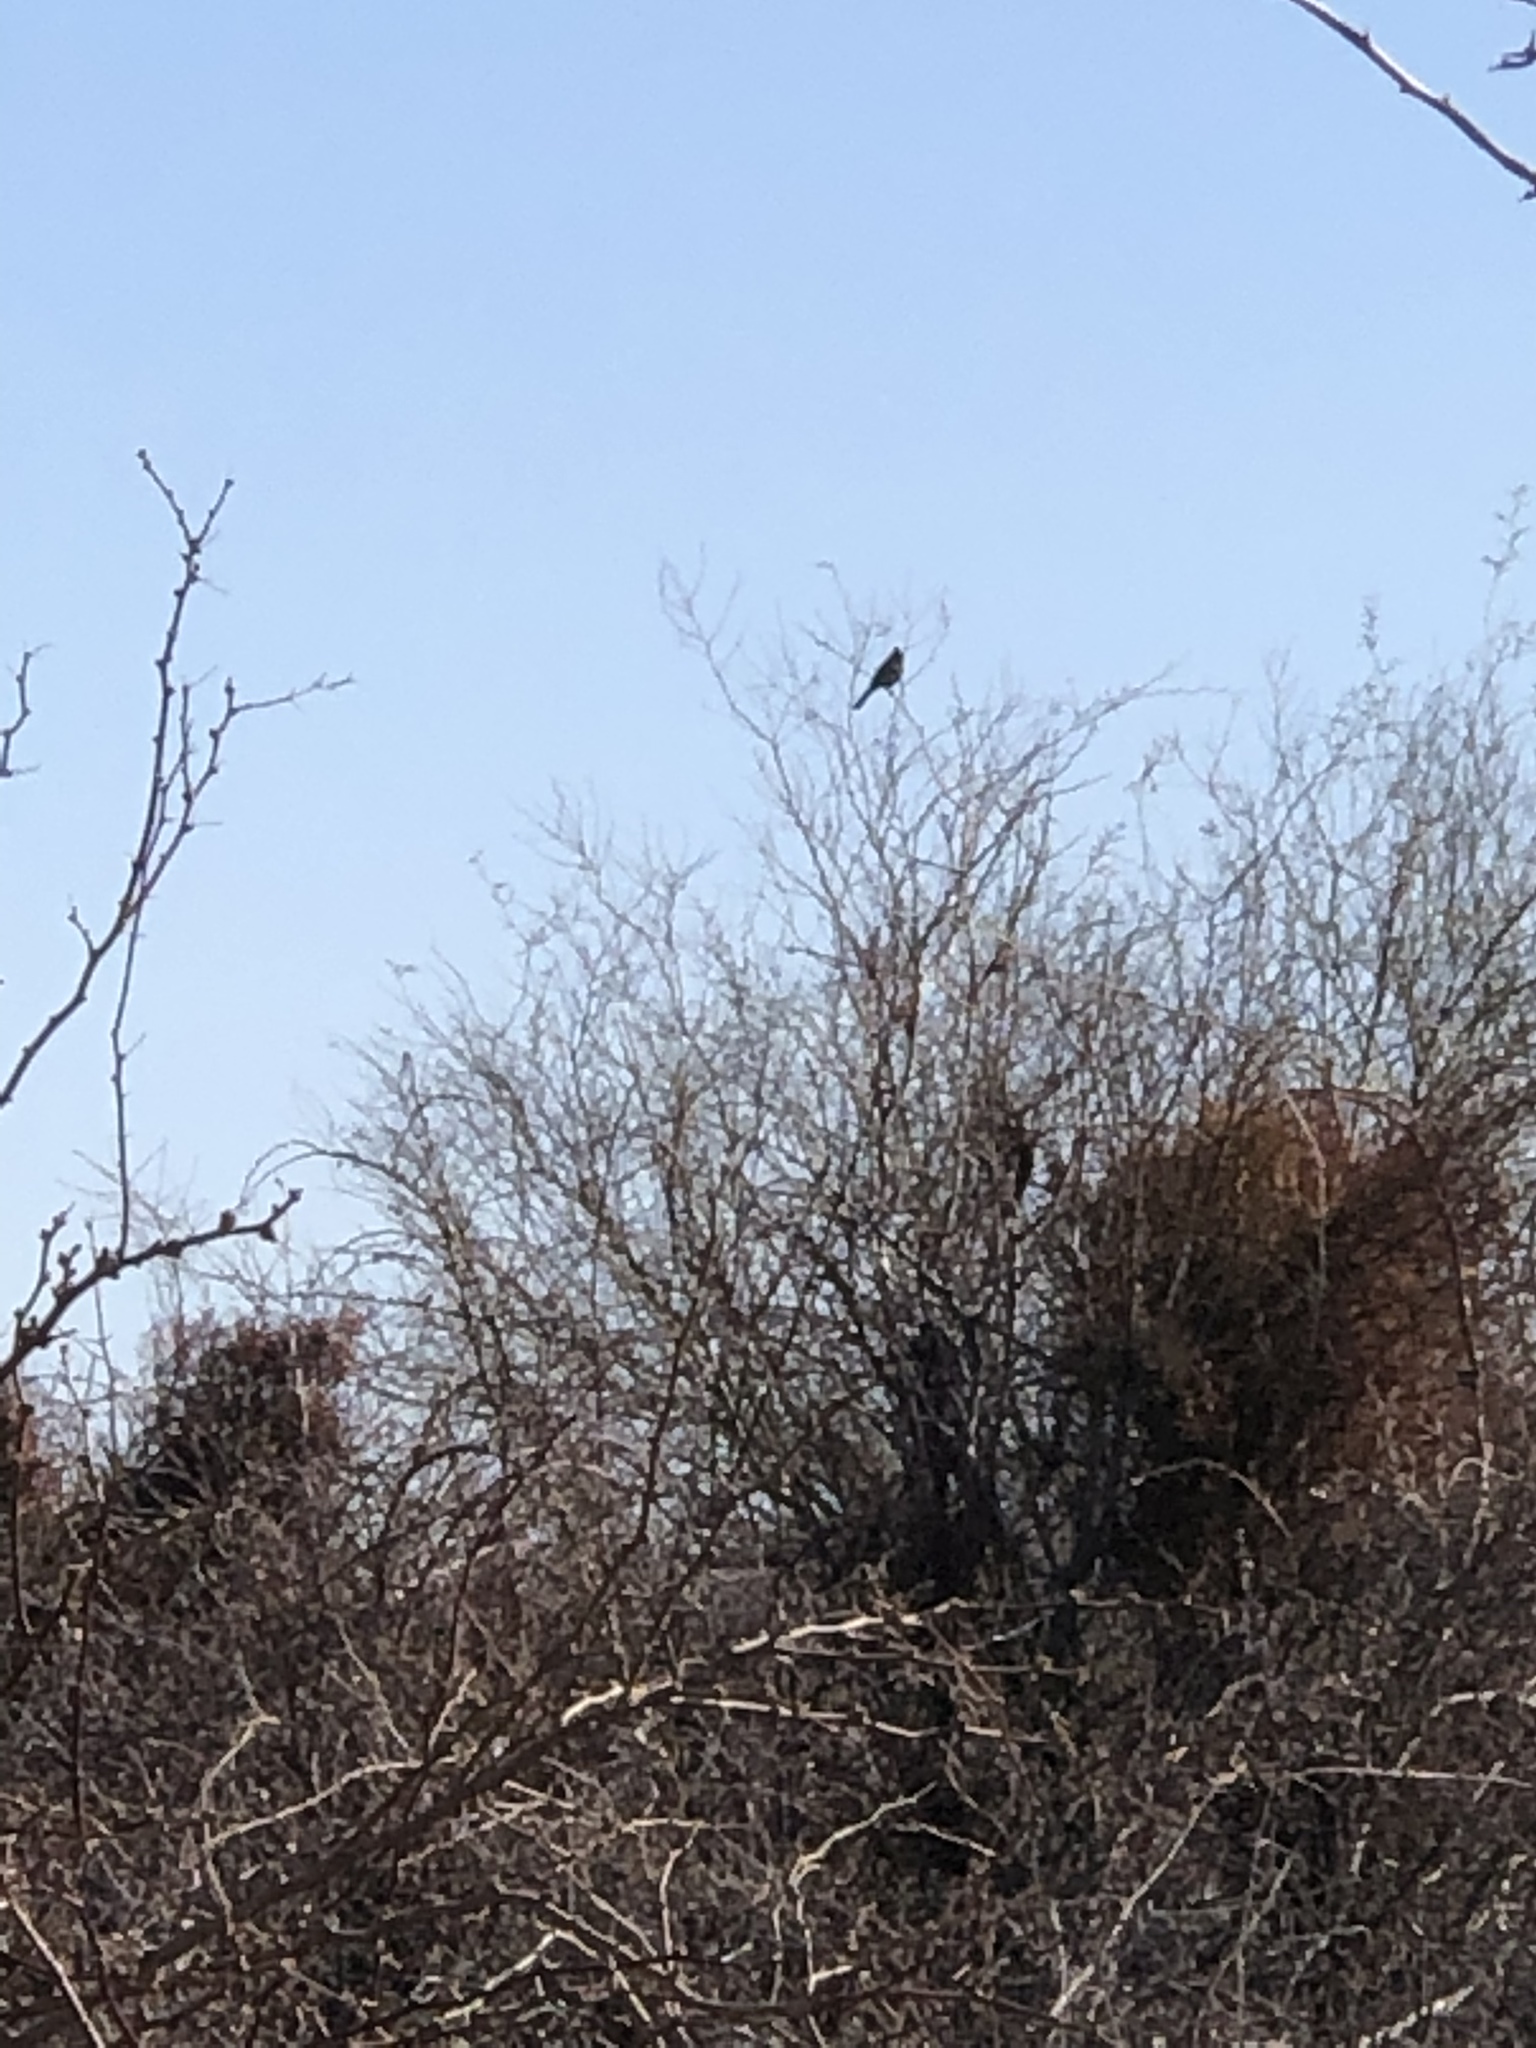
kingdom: Animalia
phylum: Chordata
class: Aves
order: Passeriformes
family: Ptilogonatidae
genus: Phainopepla
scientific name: Phainopepla nitens
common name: Phainopepla
